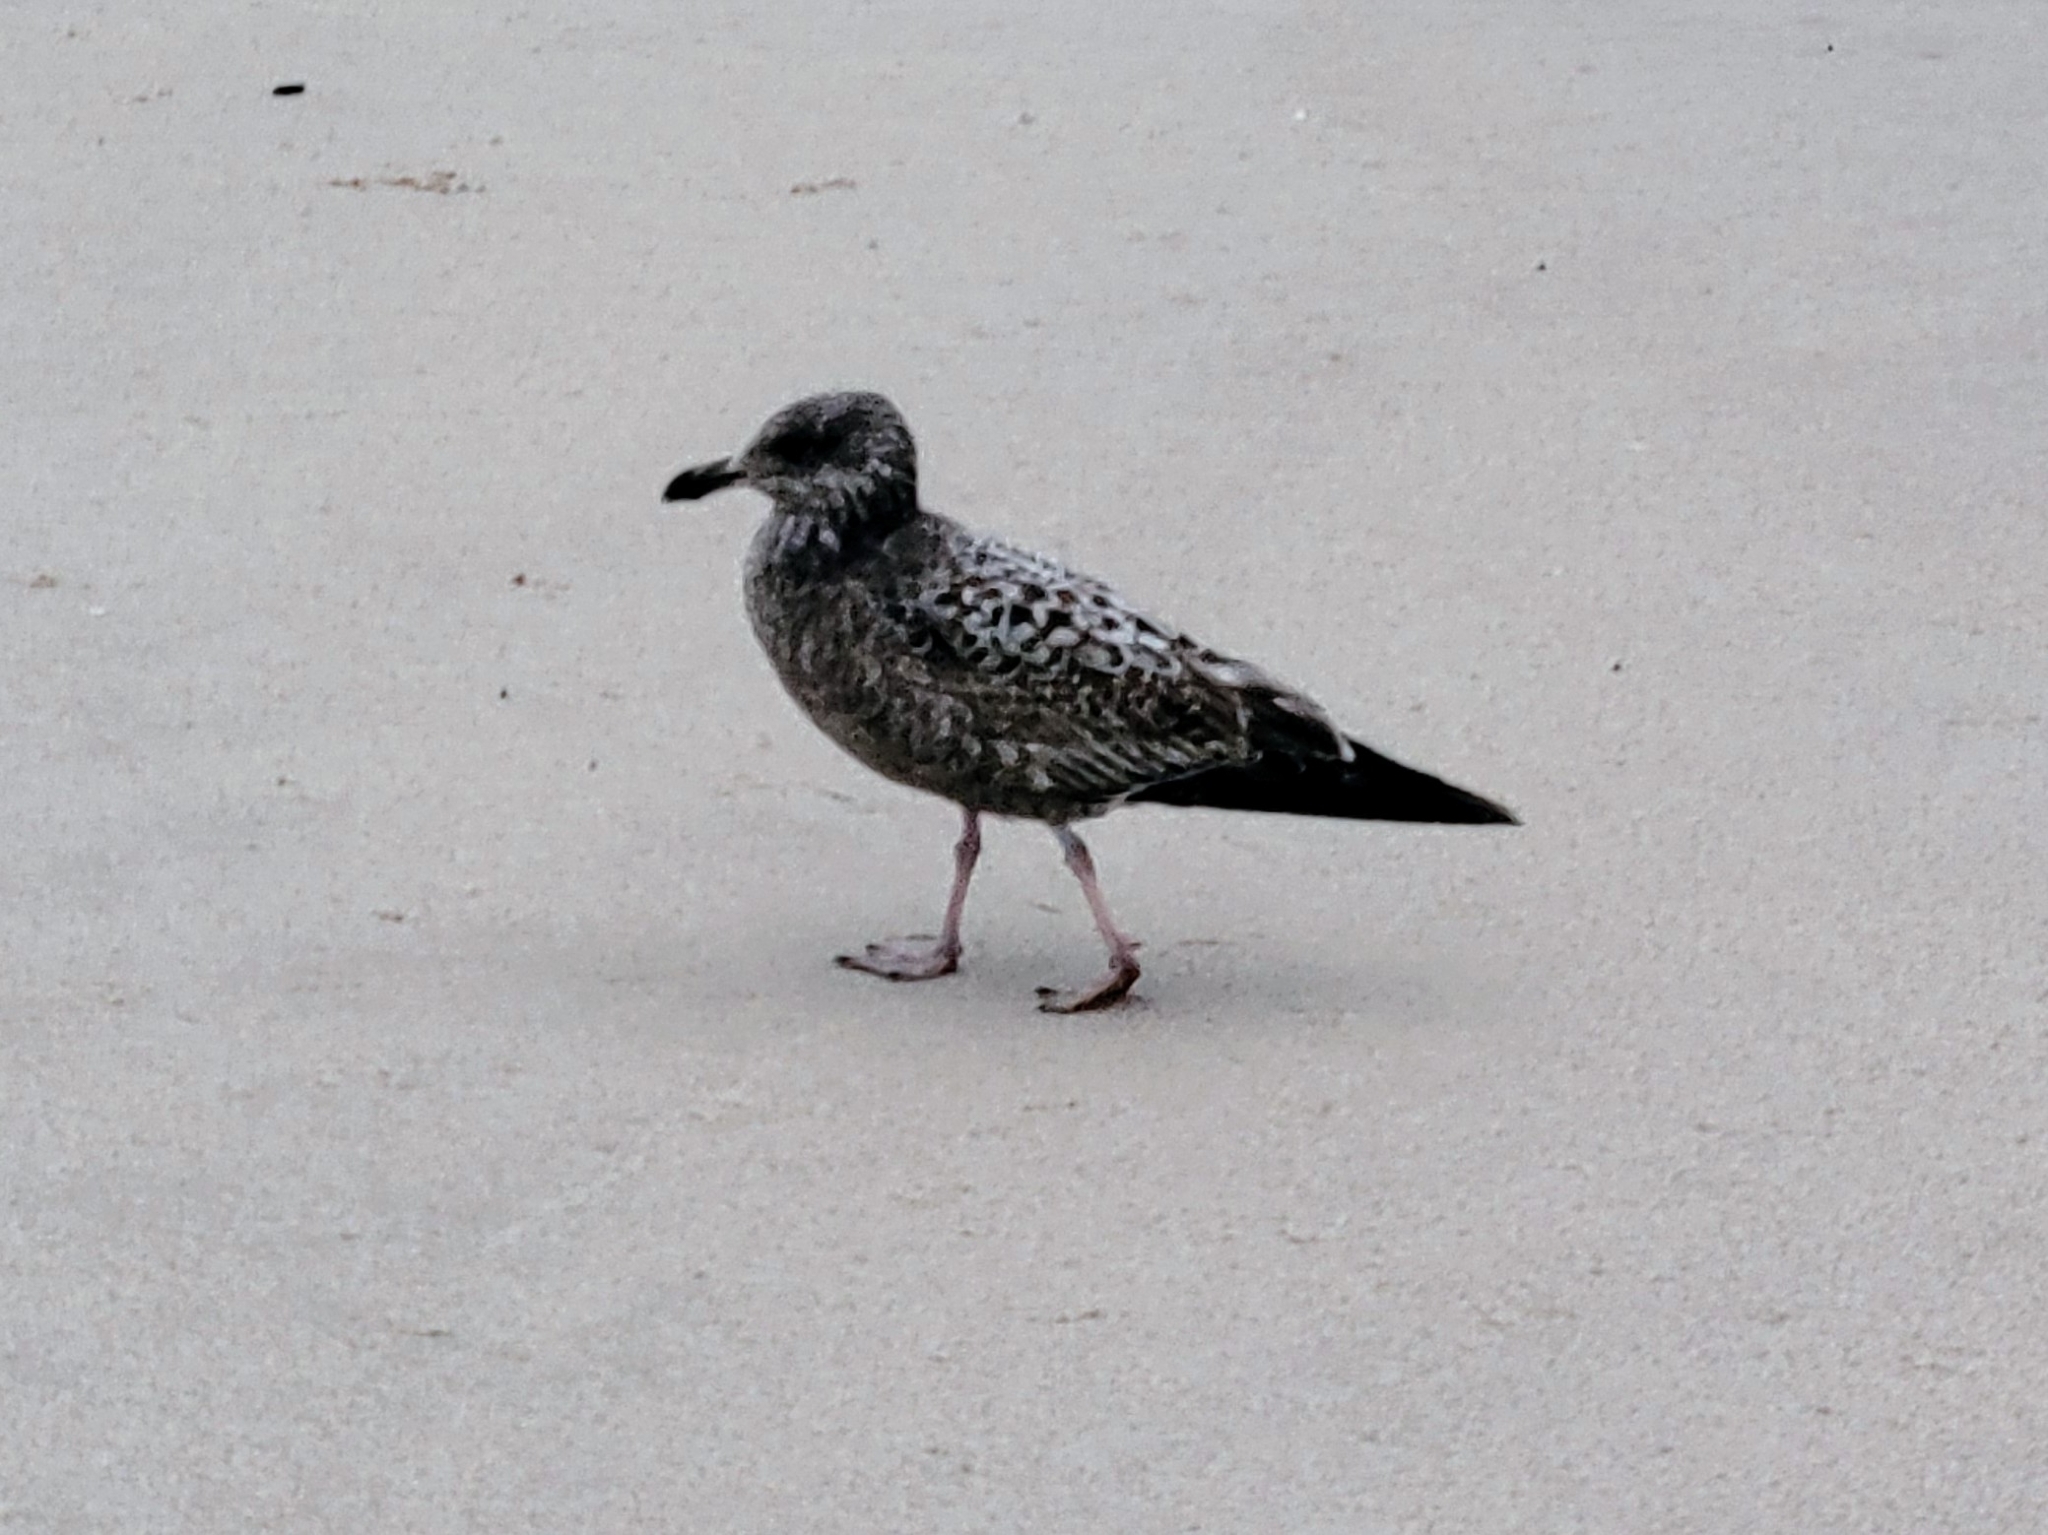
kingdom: Animalia
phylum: Chordata
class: Aves
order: Charadriiformes
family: Laridae
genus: Larus
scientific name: Larus
